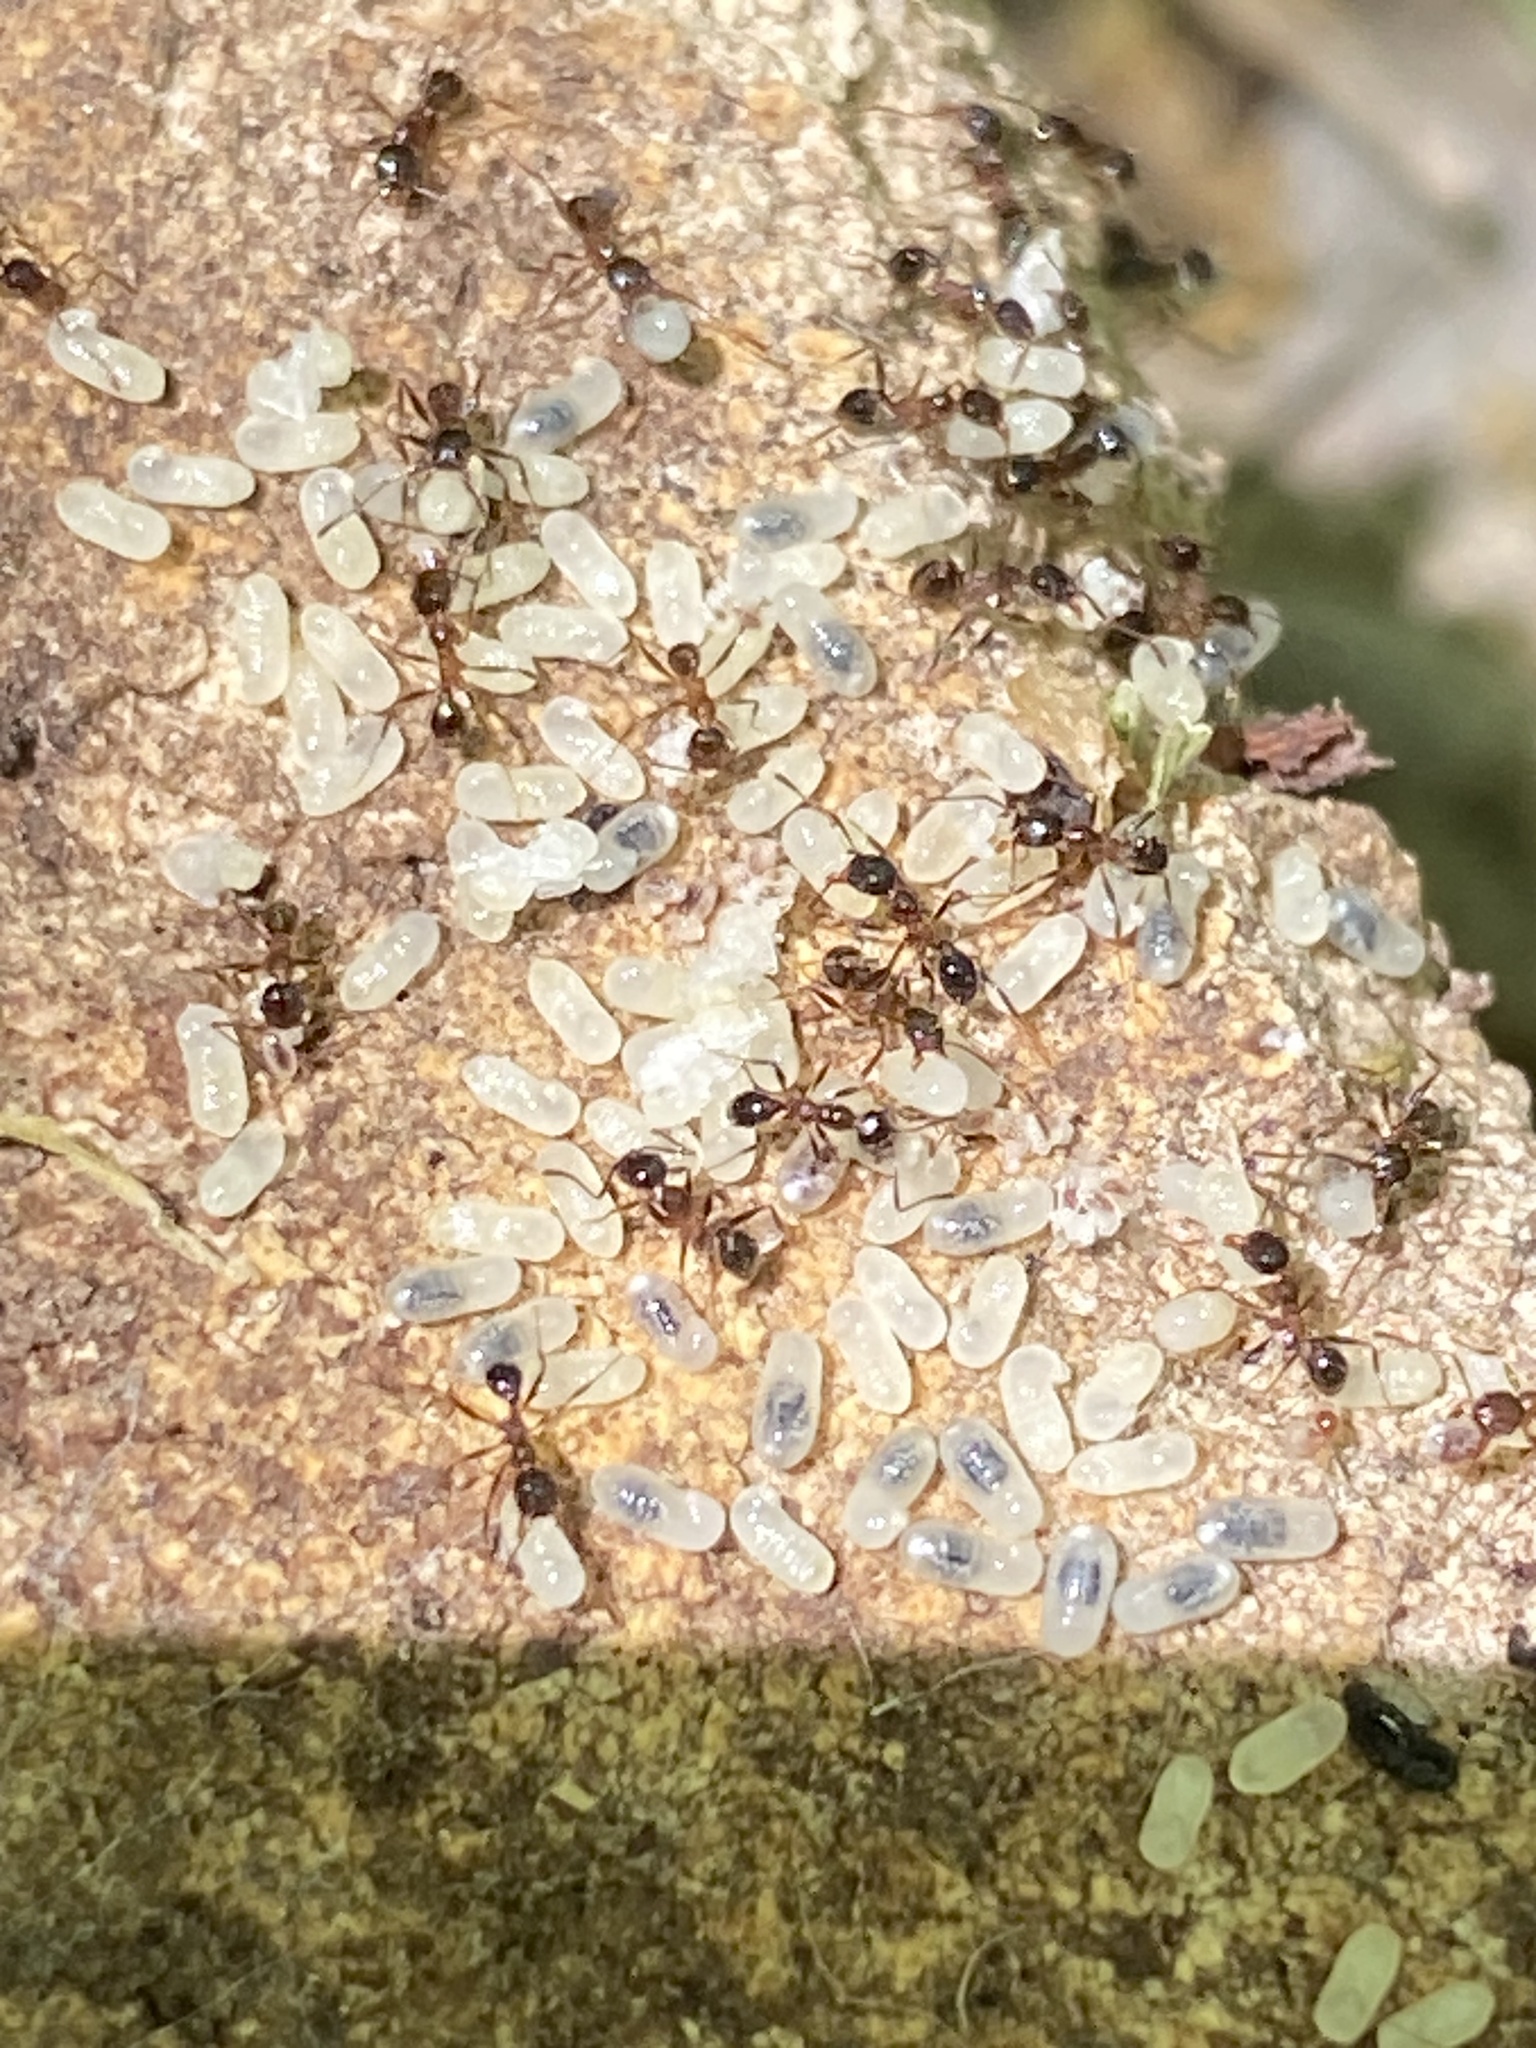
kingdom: Animalia
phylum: Arthropoda
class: Insecta
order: Hymenoptera
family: Formicidae
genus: Pheidole
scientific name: Pheidole dentata
